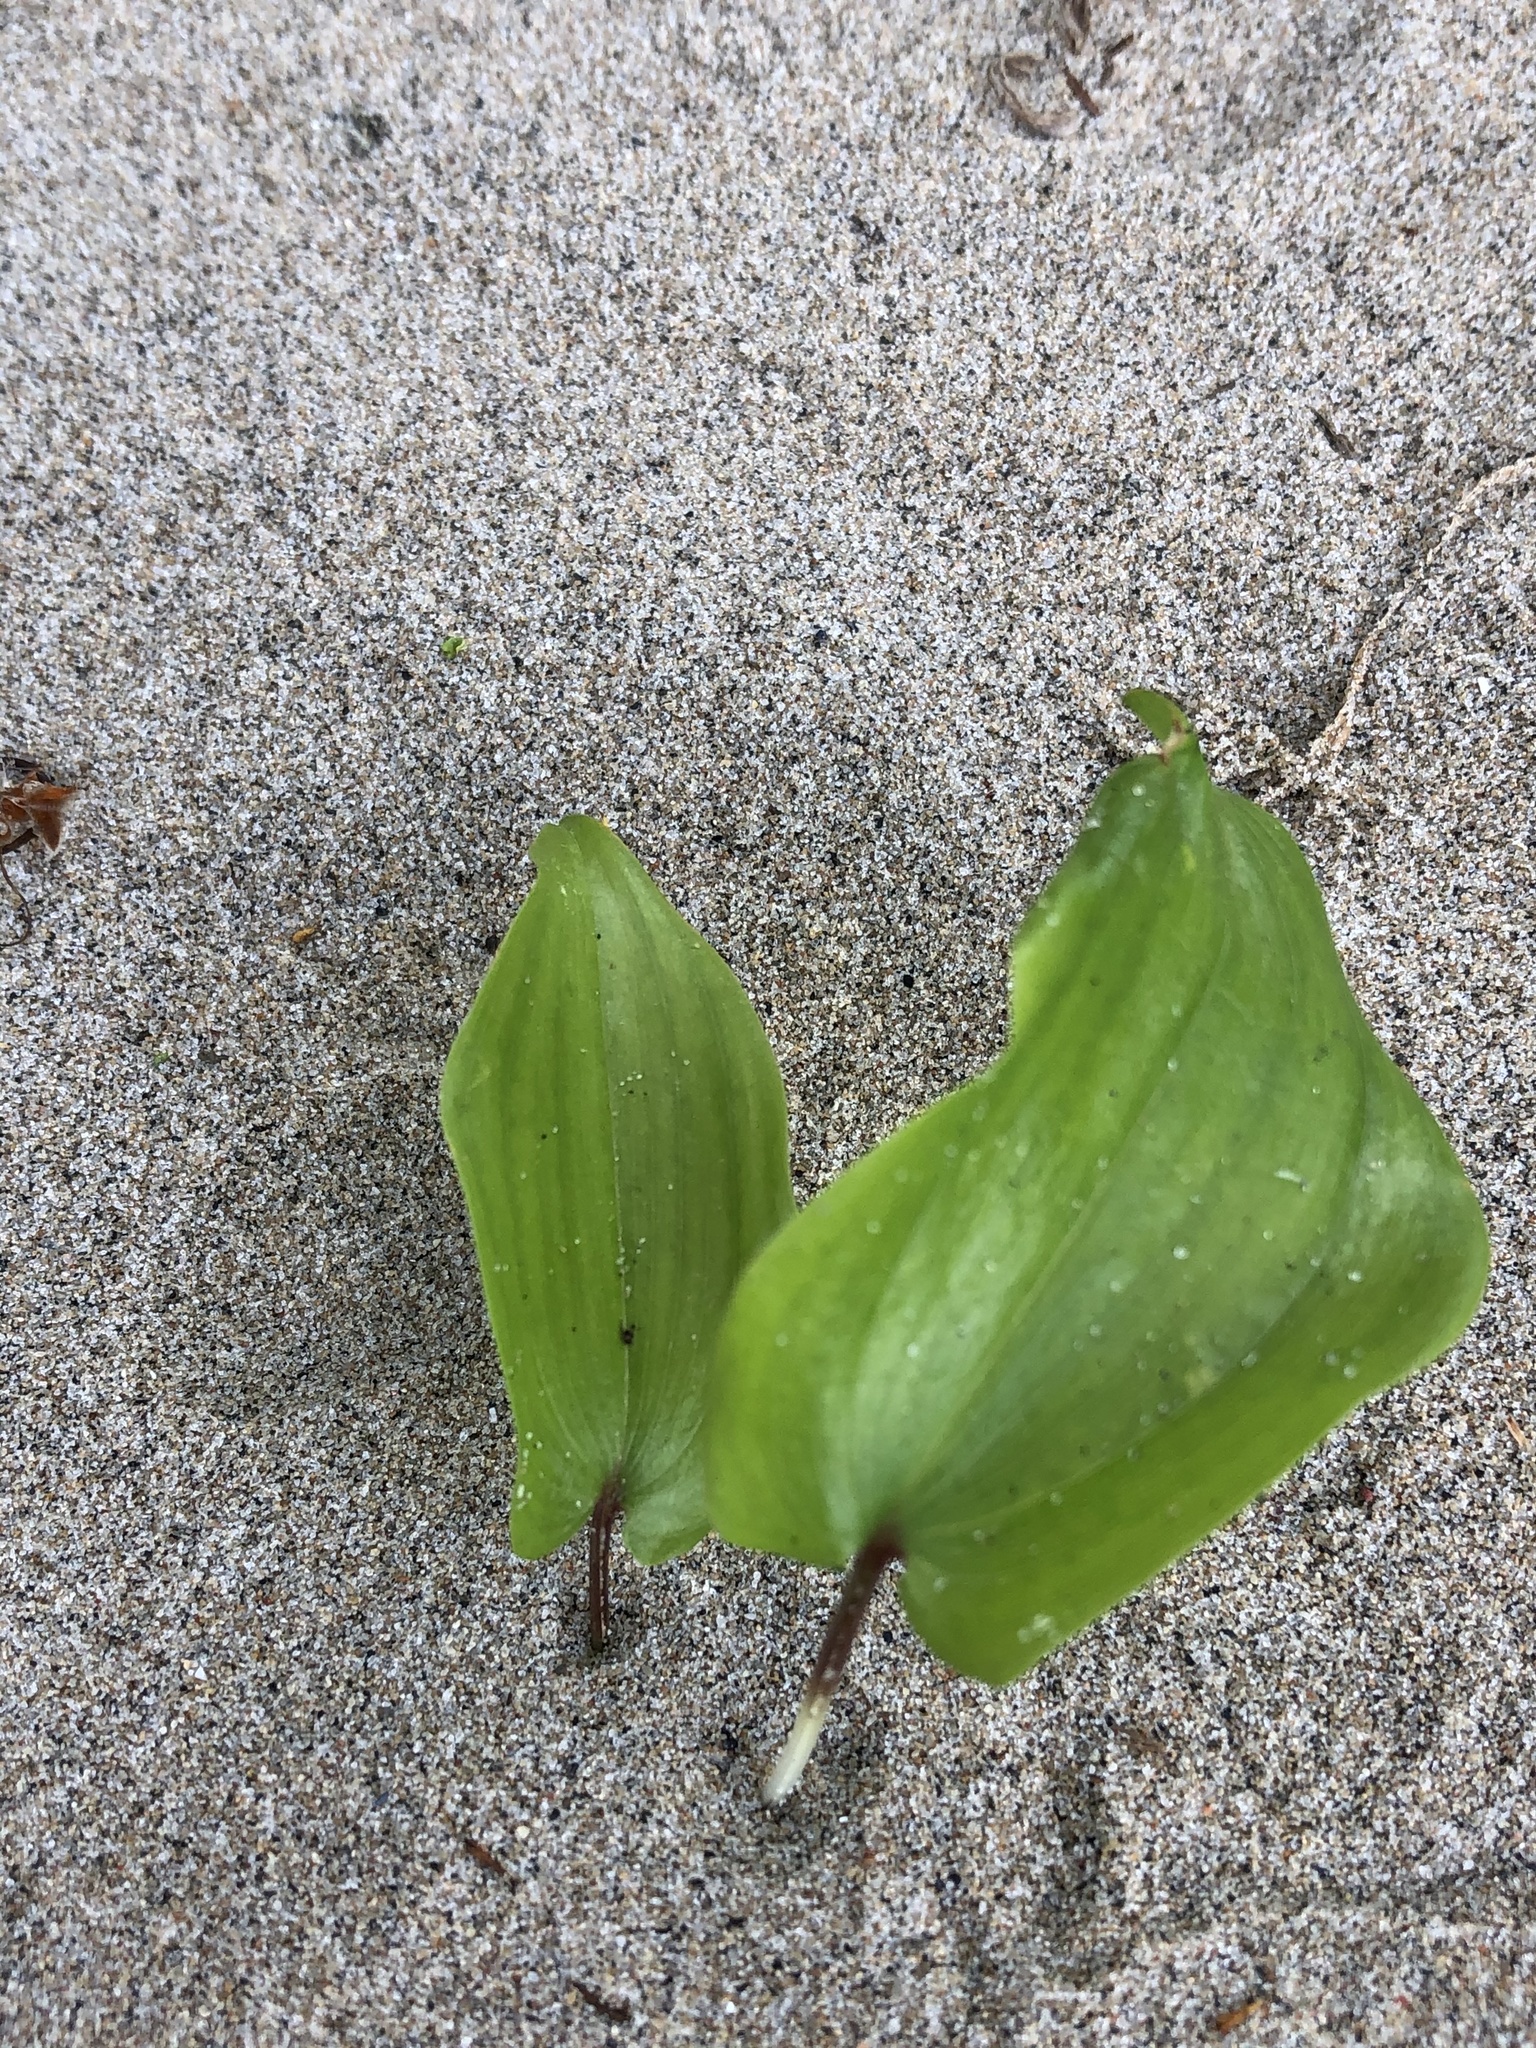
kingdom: Plantae
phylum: Tracheophyta
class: Liliopsida
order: Asparagales
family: Asparagaceae
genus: Maianthemum
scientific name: Maianthemum canadense
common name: False lily-of-the-valley
